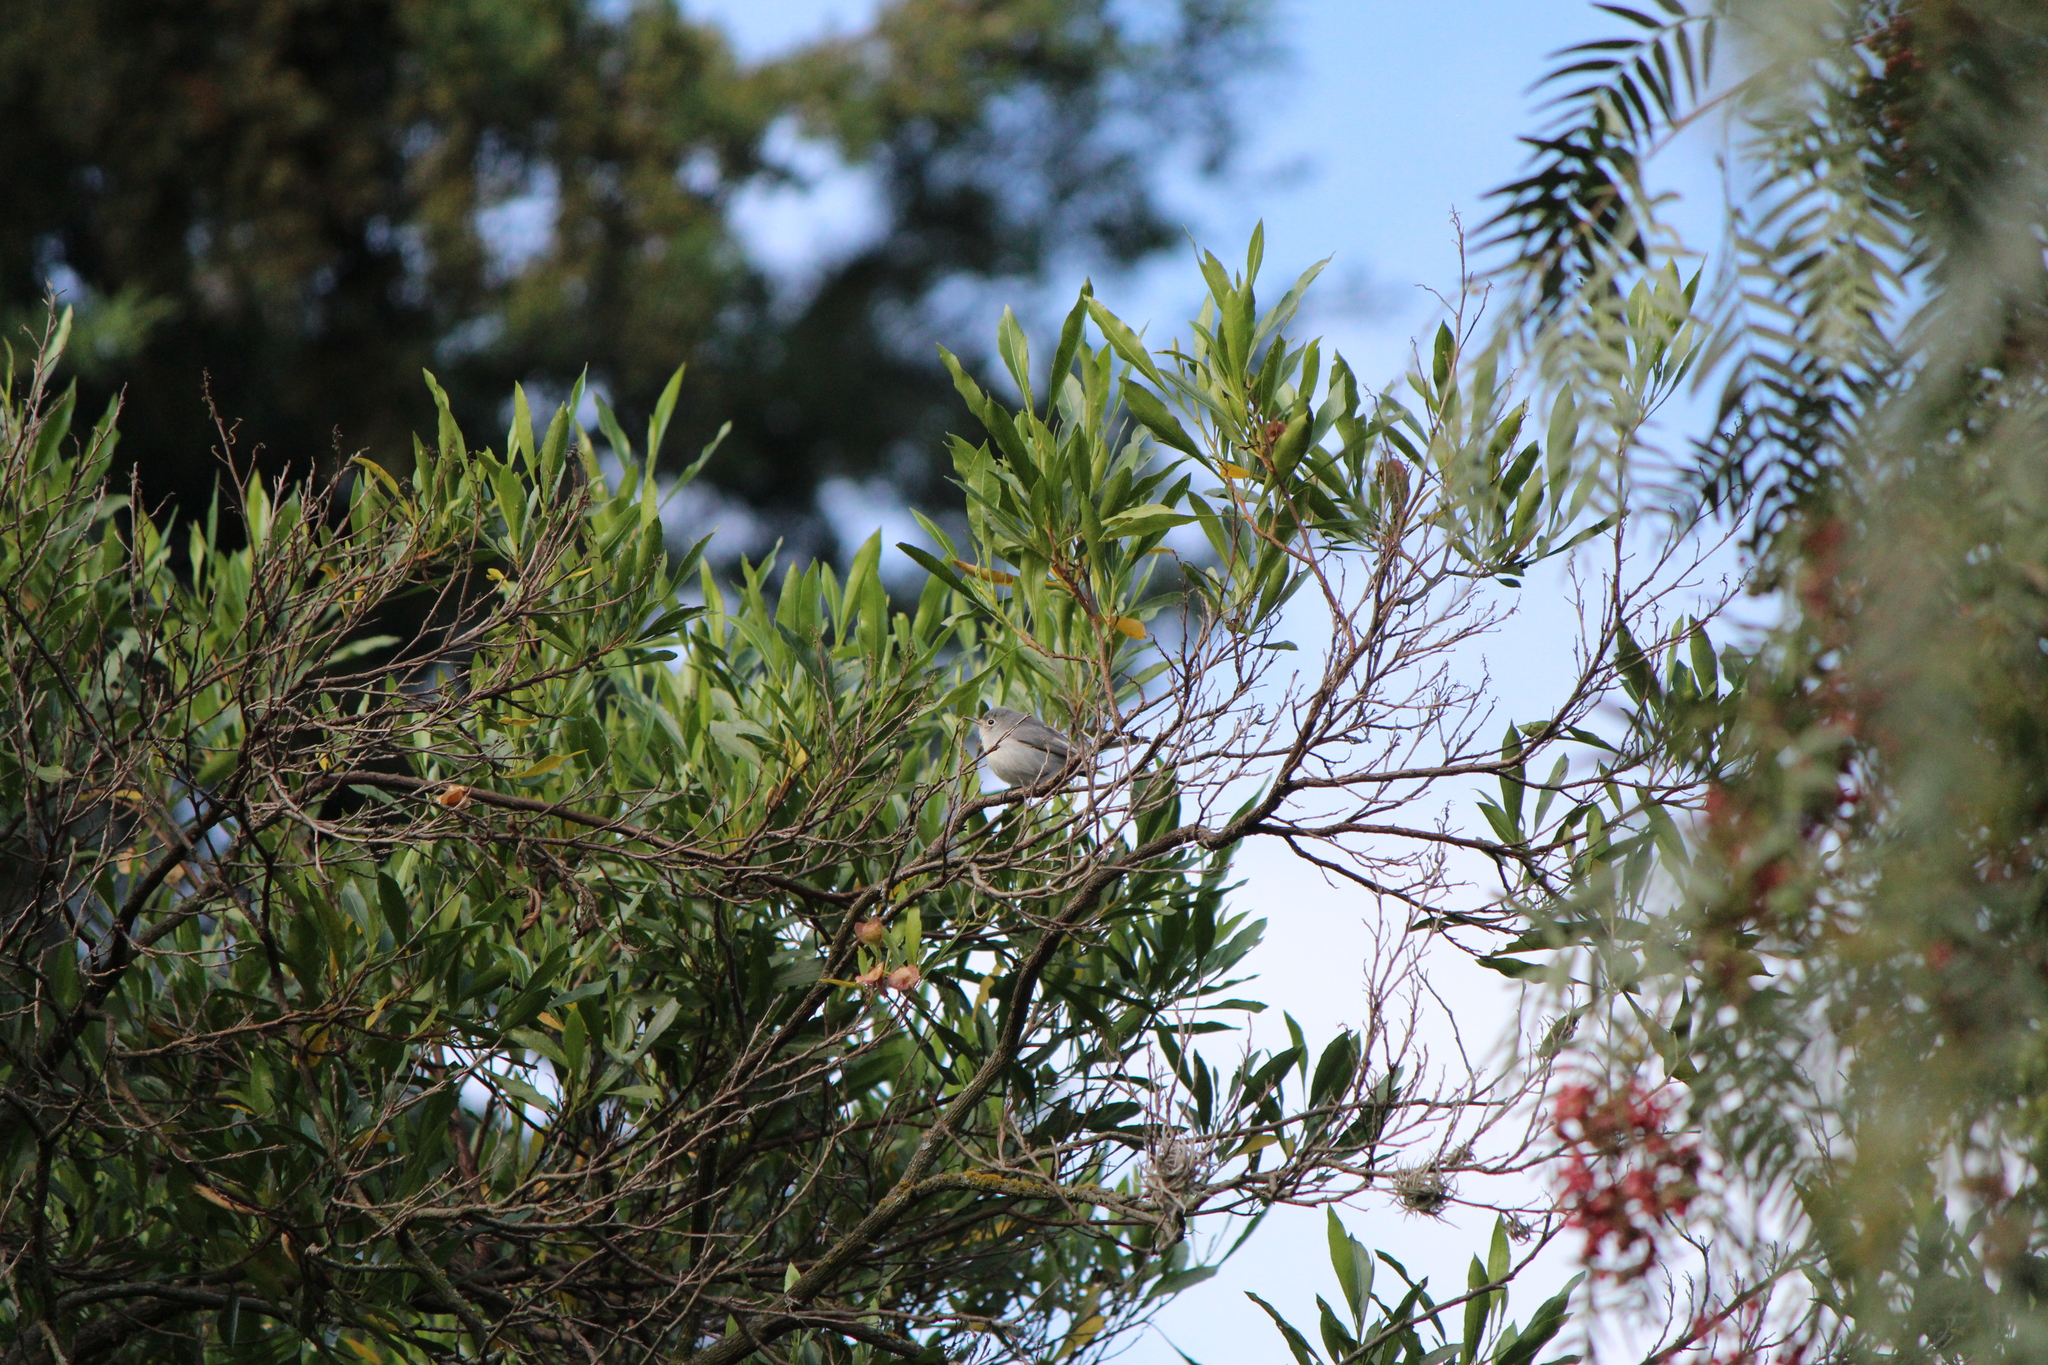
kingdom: Animalia
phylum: Chordata
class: Aves
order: Passeriformes
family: Polioptilidae
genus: Polioptila
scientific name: Polioptila caerulea
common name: Blue-gray gnatcatcher
